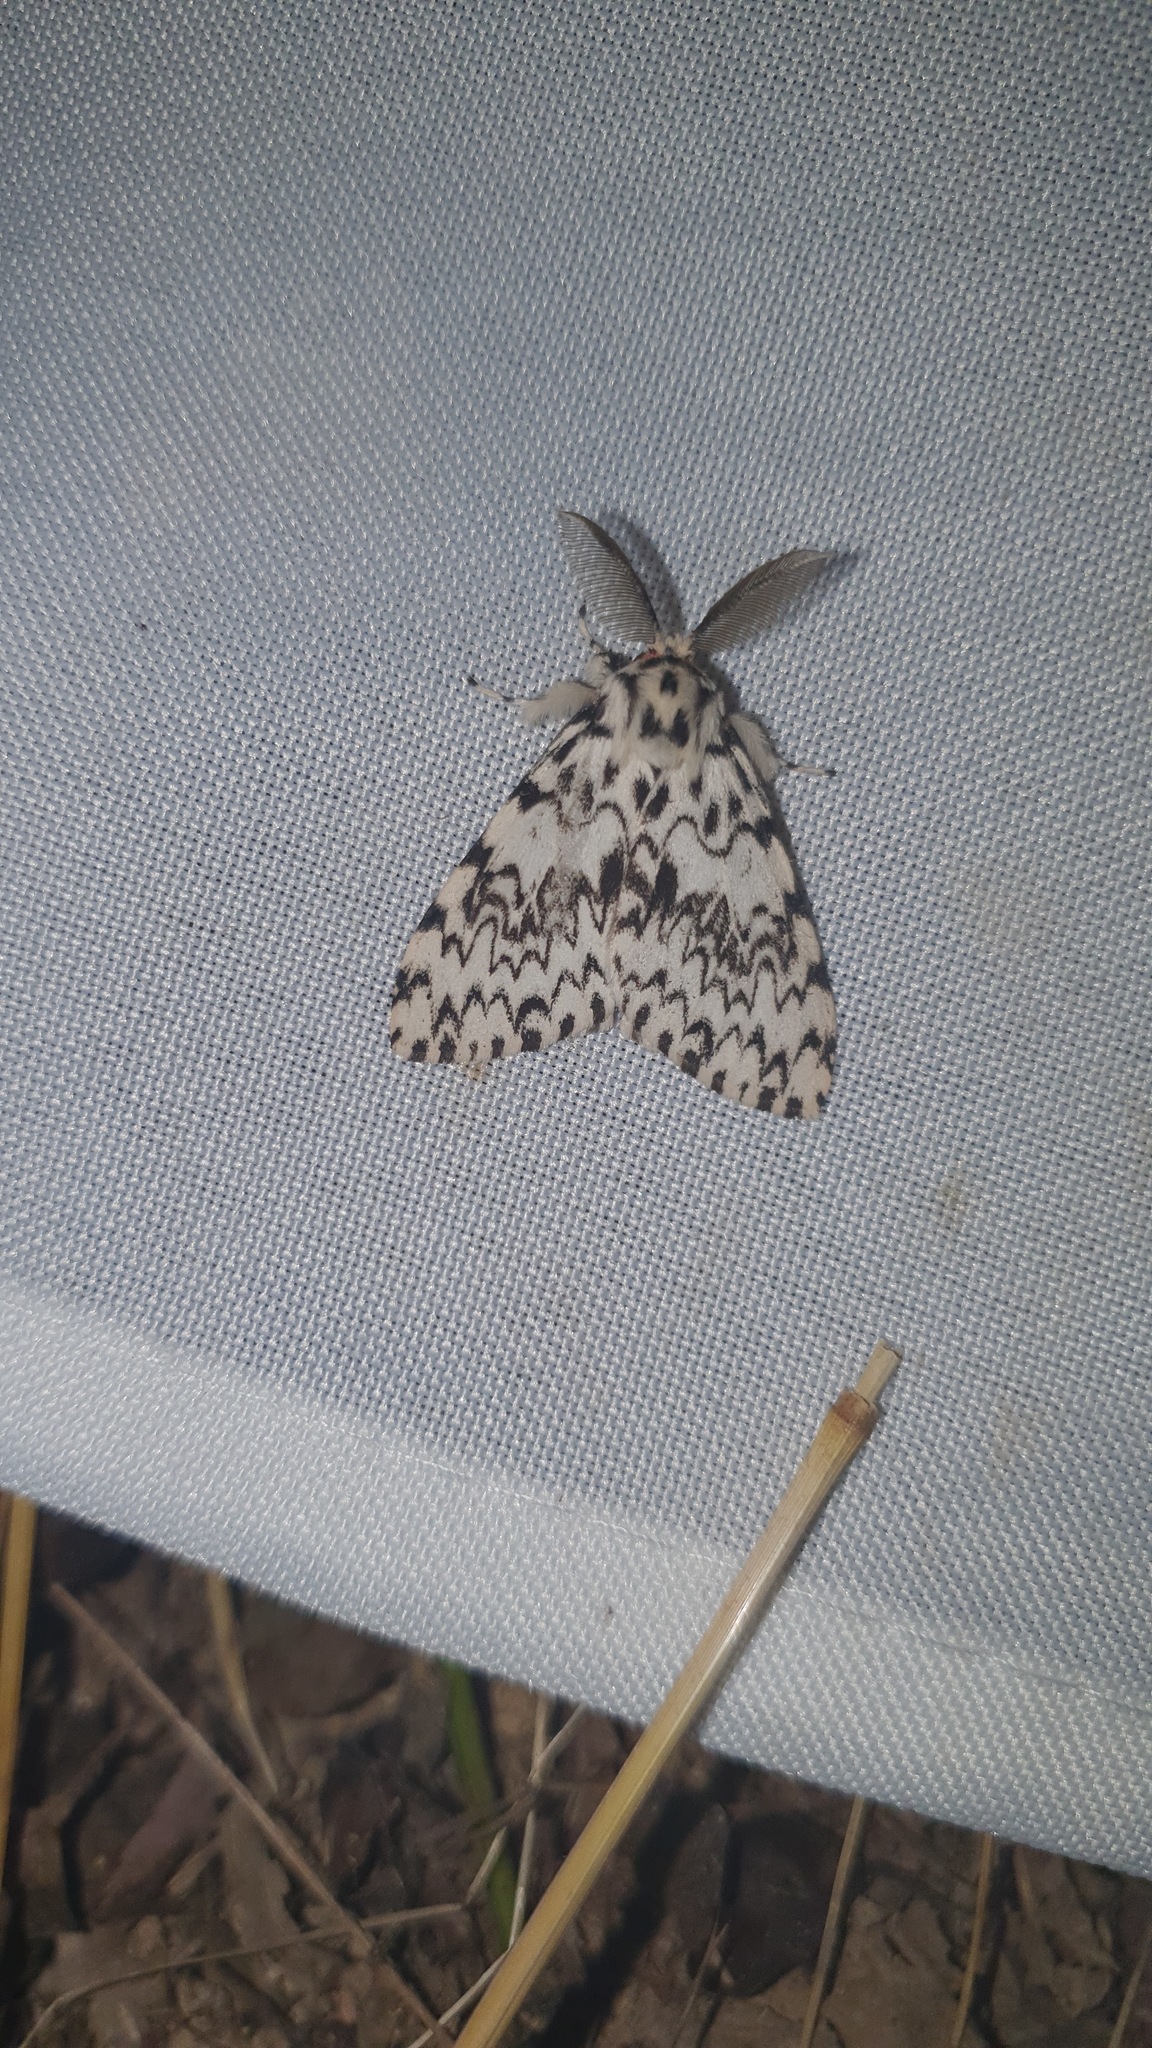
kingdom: Animalia
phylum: Arthropoda
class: Insecta
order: Lepidoptera
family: Erebidae
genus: Lymantria
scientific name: Lymantria monacha
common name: Black arches
